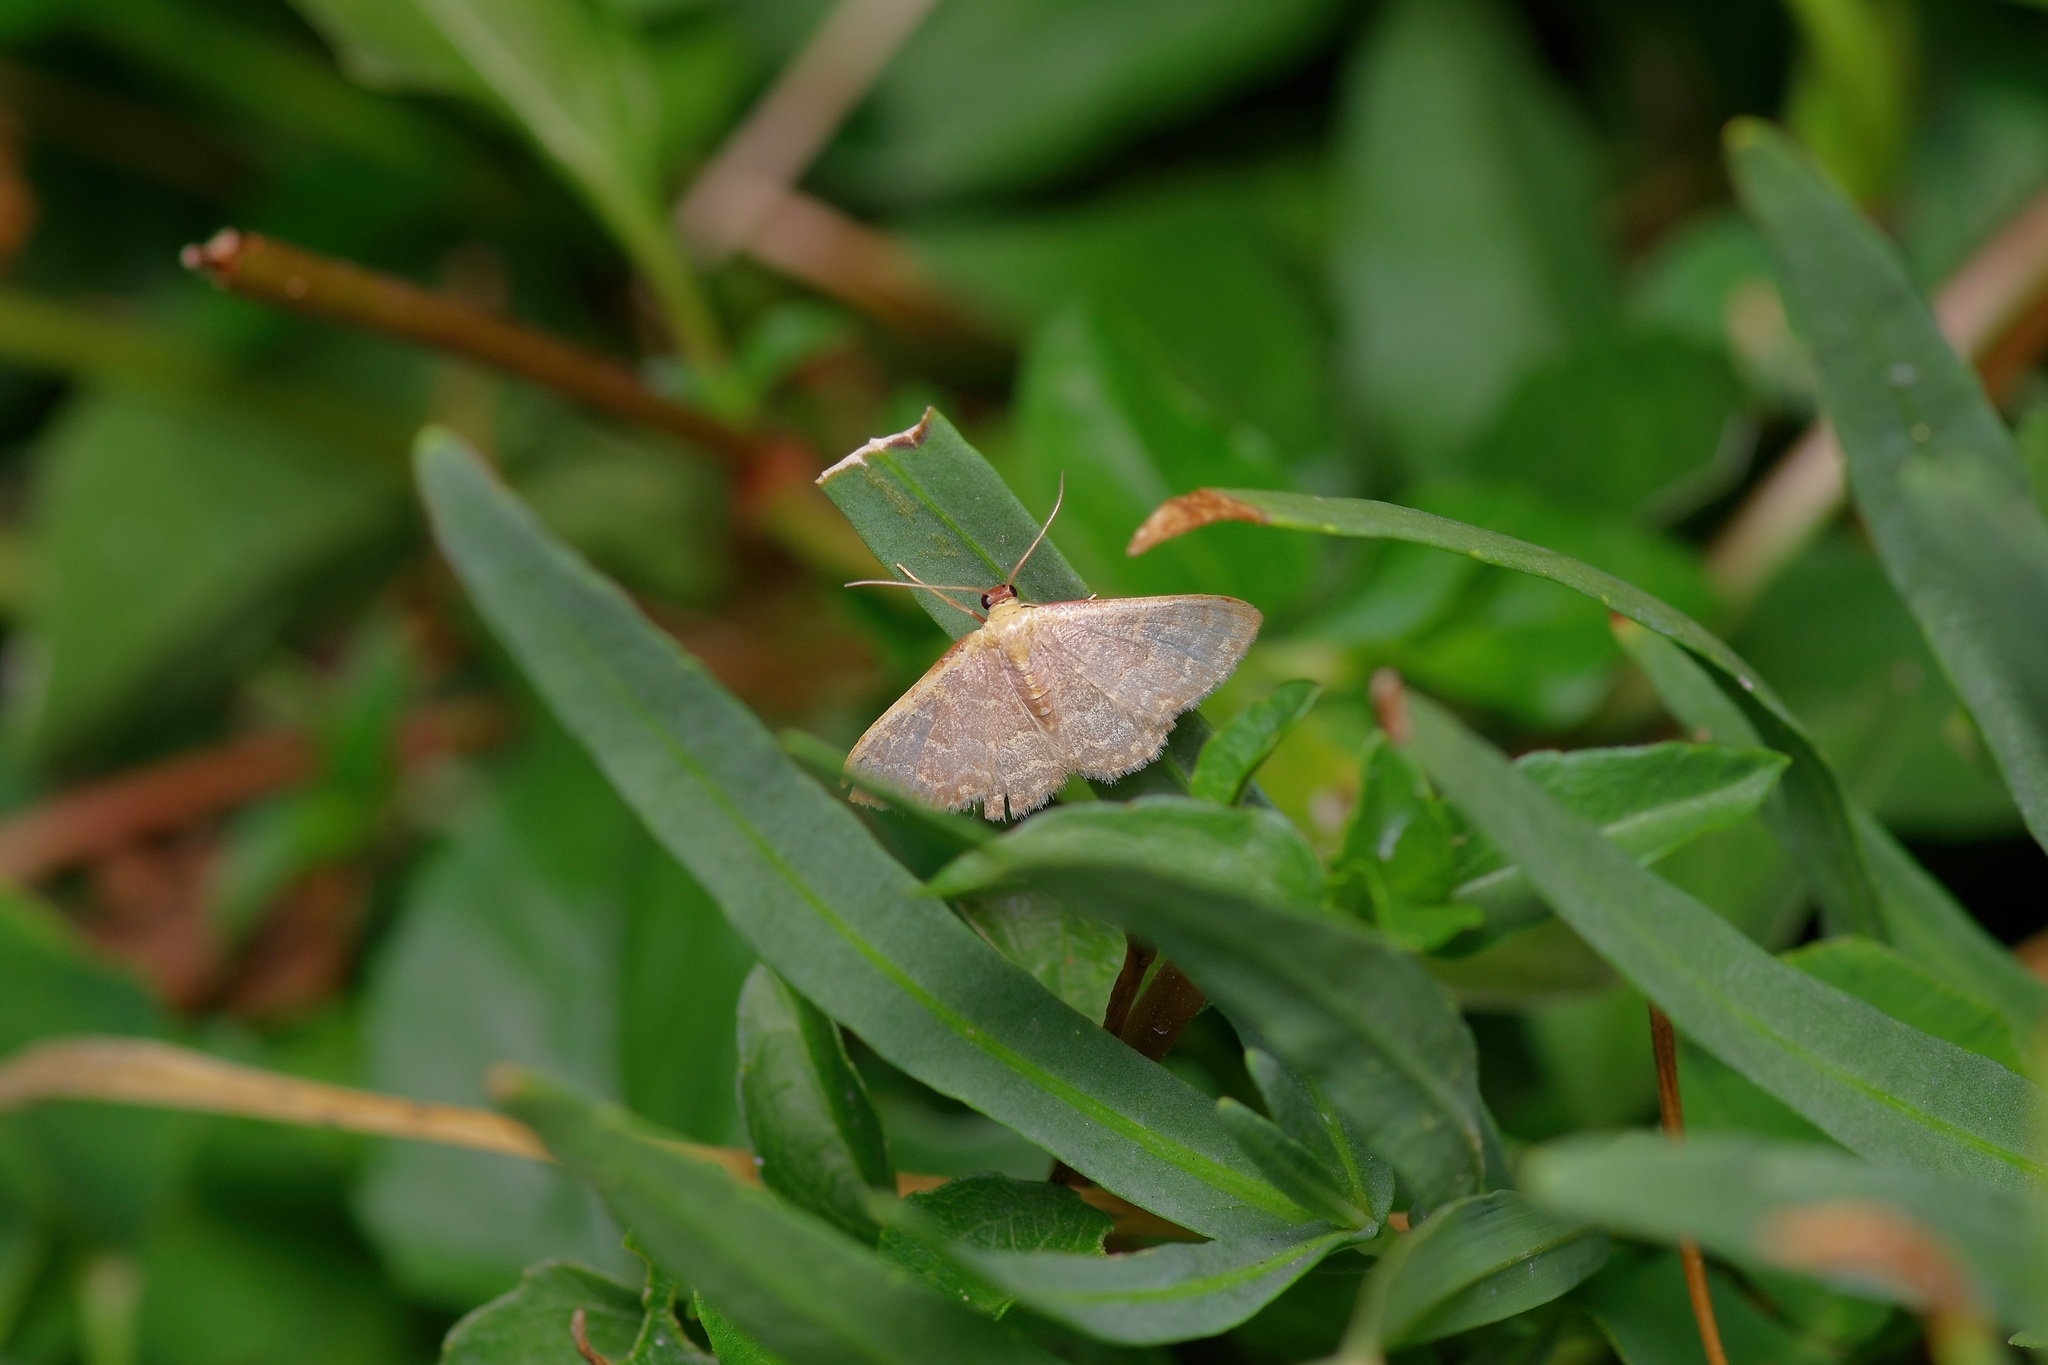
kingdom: Animalia
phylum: Arthropoda
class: Insecta
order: Lepidoptera
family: Geometridae
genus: Leptostales
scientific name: Leptostales pannaria
